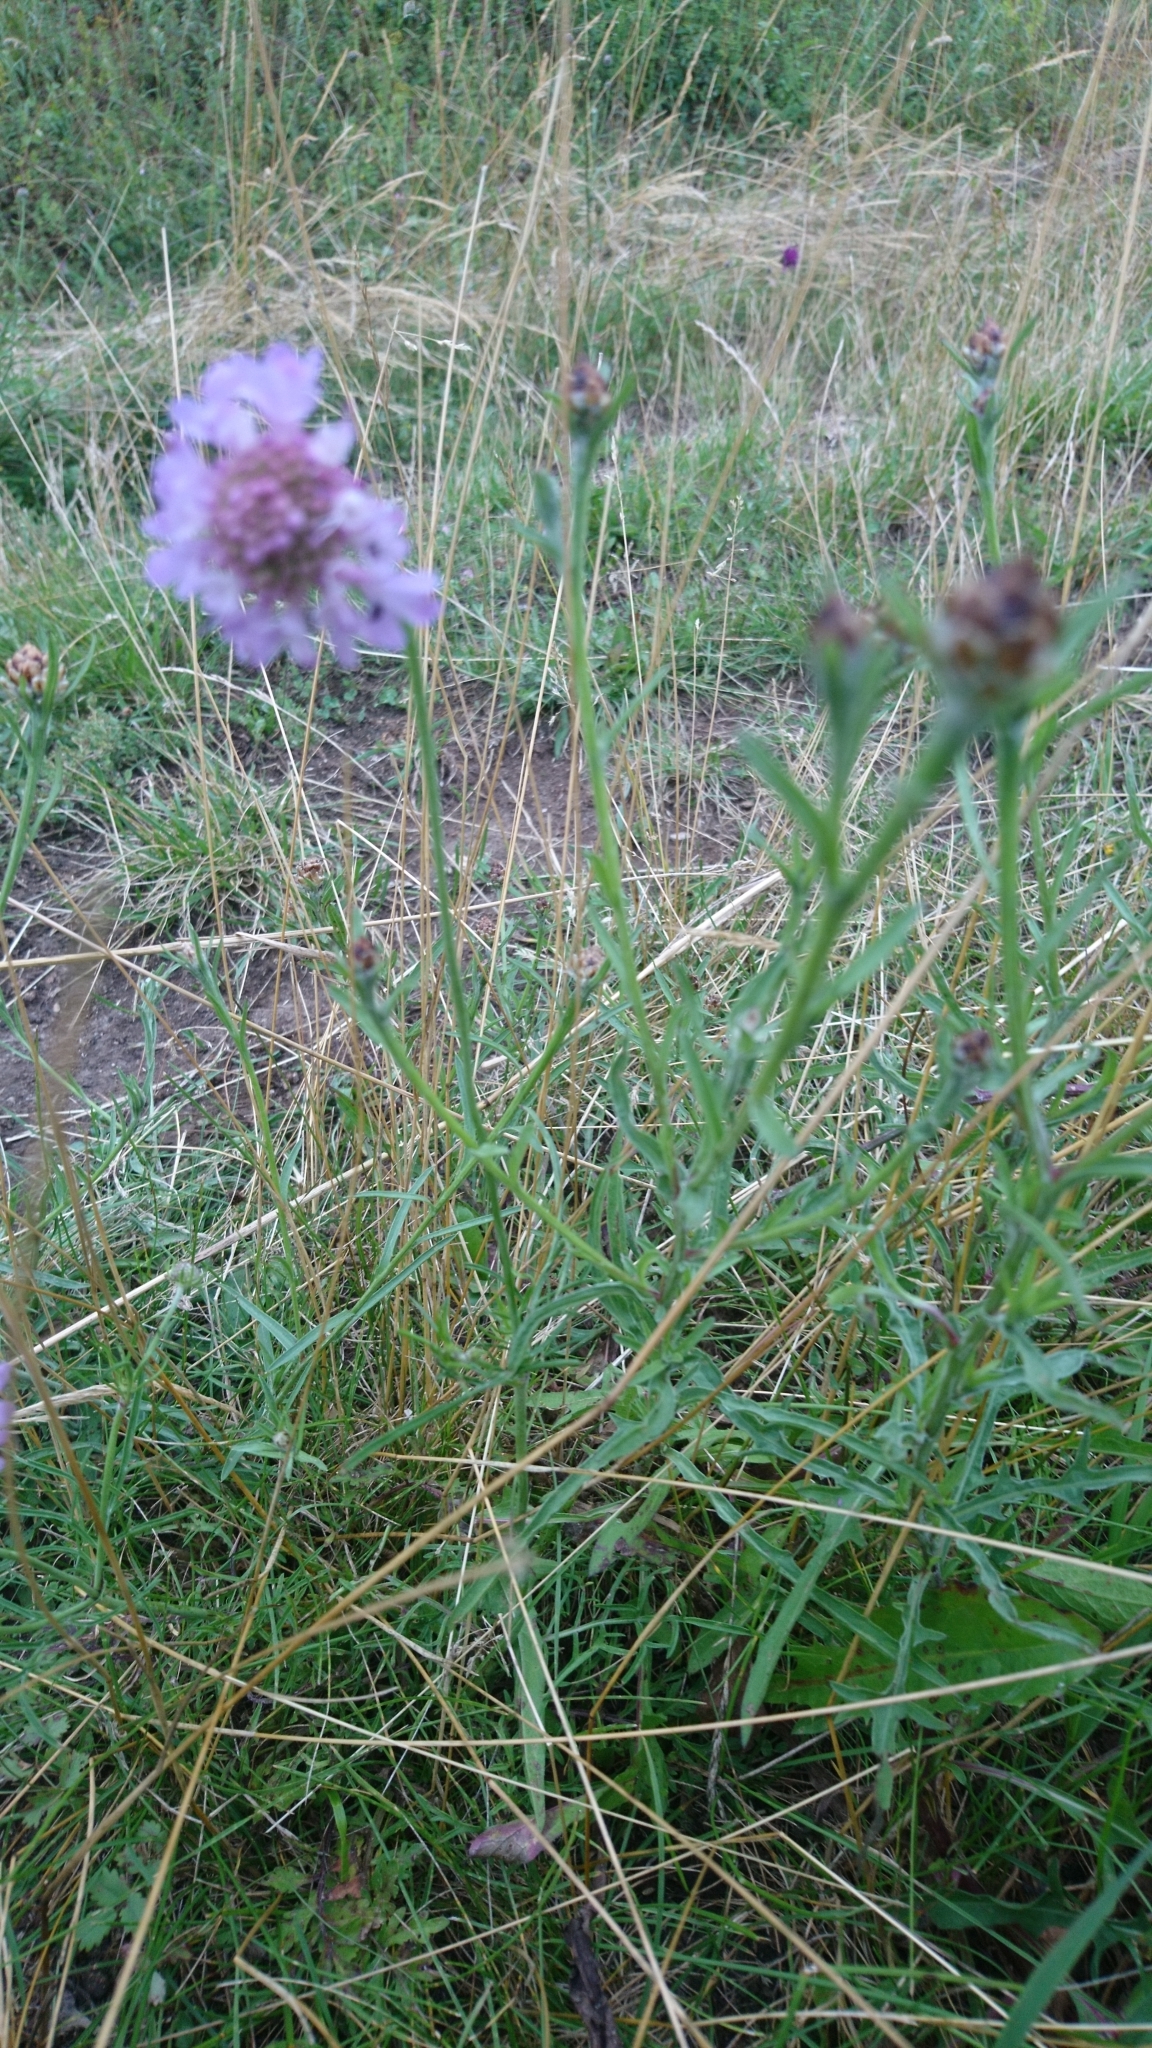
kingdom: Plantae
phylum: Tracheophyta
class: Magnoliopsida
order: Dipsacales
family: Caprifoliaceae
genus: Scabiosa
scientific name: Scabiosa columbaria
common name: Small scabious
